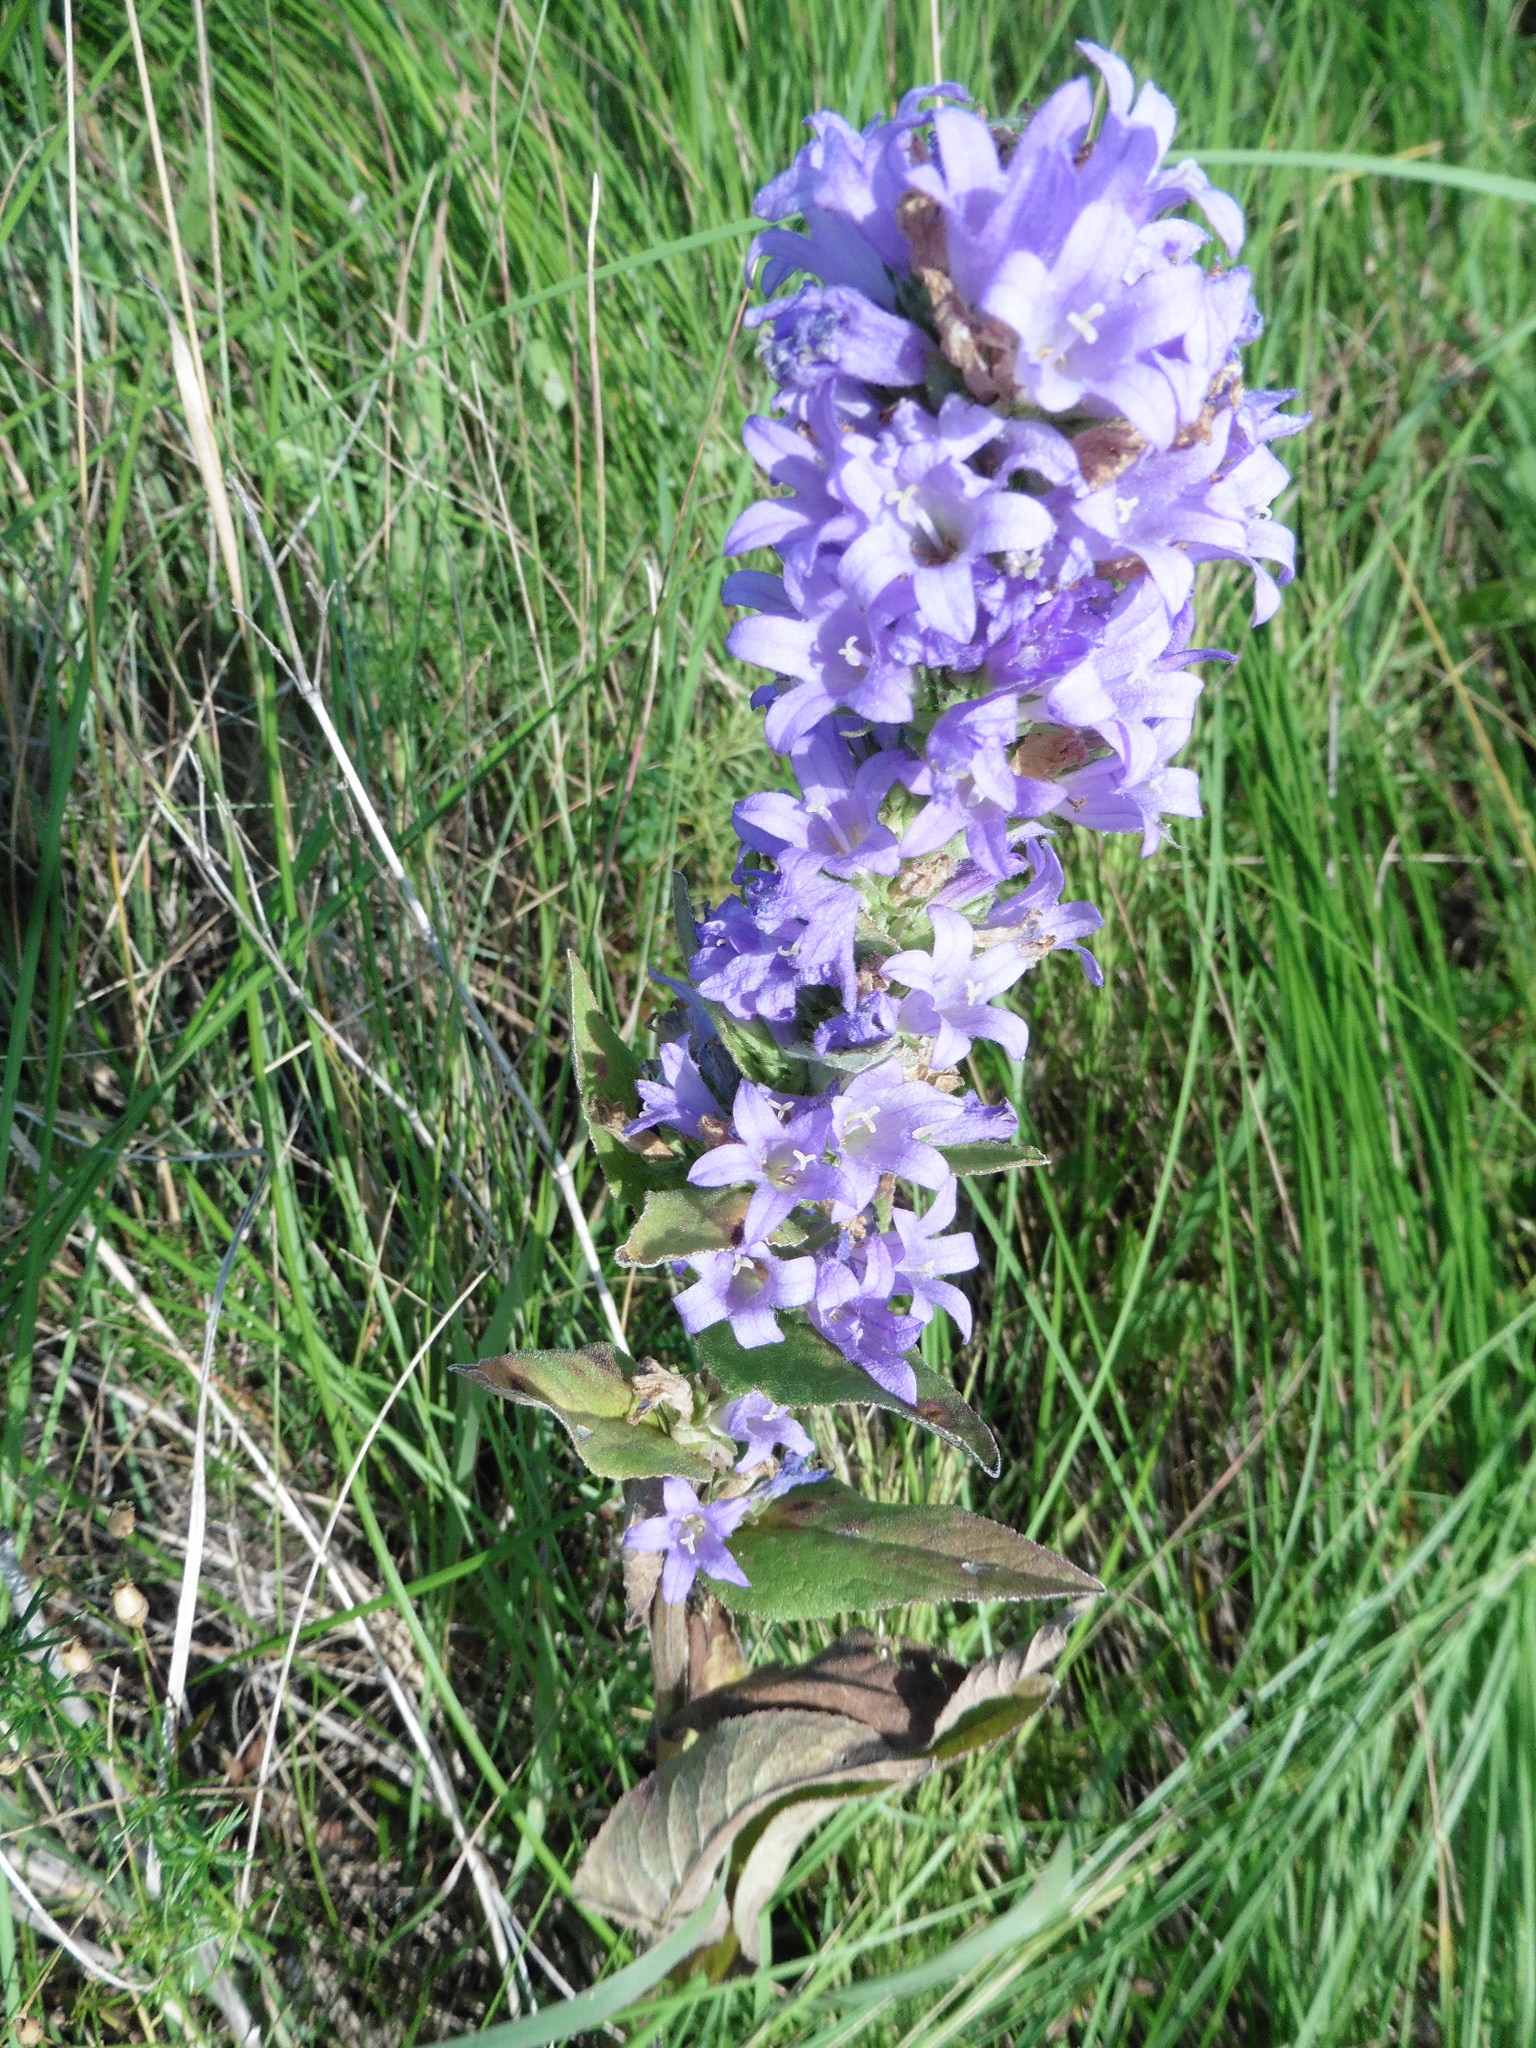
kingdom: Plantae
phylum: Tracheophyta
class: Magnoliopsida
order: Asterales
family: Campanulaceae
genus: Campanula
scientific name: Campanula glomerata
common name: Clustered bellflower
